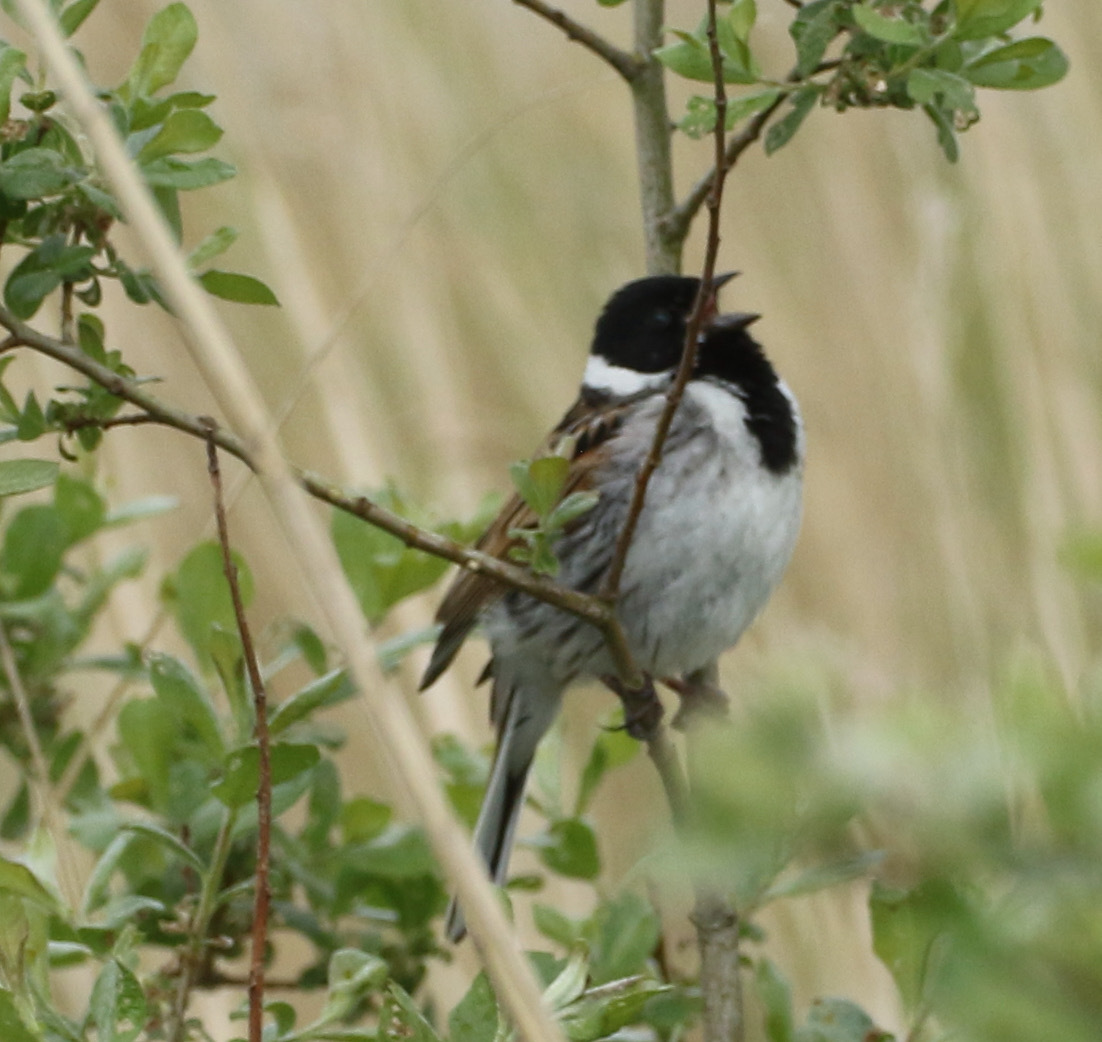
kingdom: Animalia
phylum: Chordata
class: Aves
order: Passeriformes
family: Emberizidae
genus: Emberiza
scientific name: Emberiza schoeniclus
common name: Reed bunting
